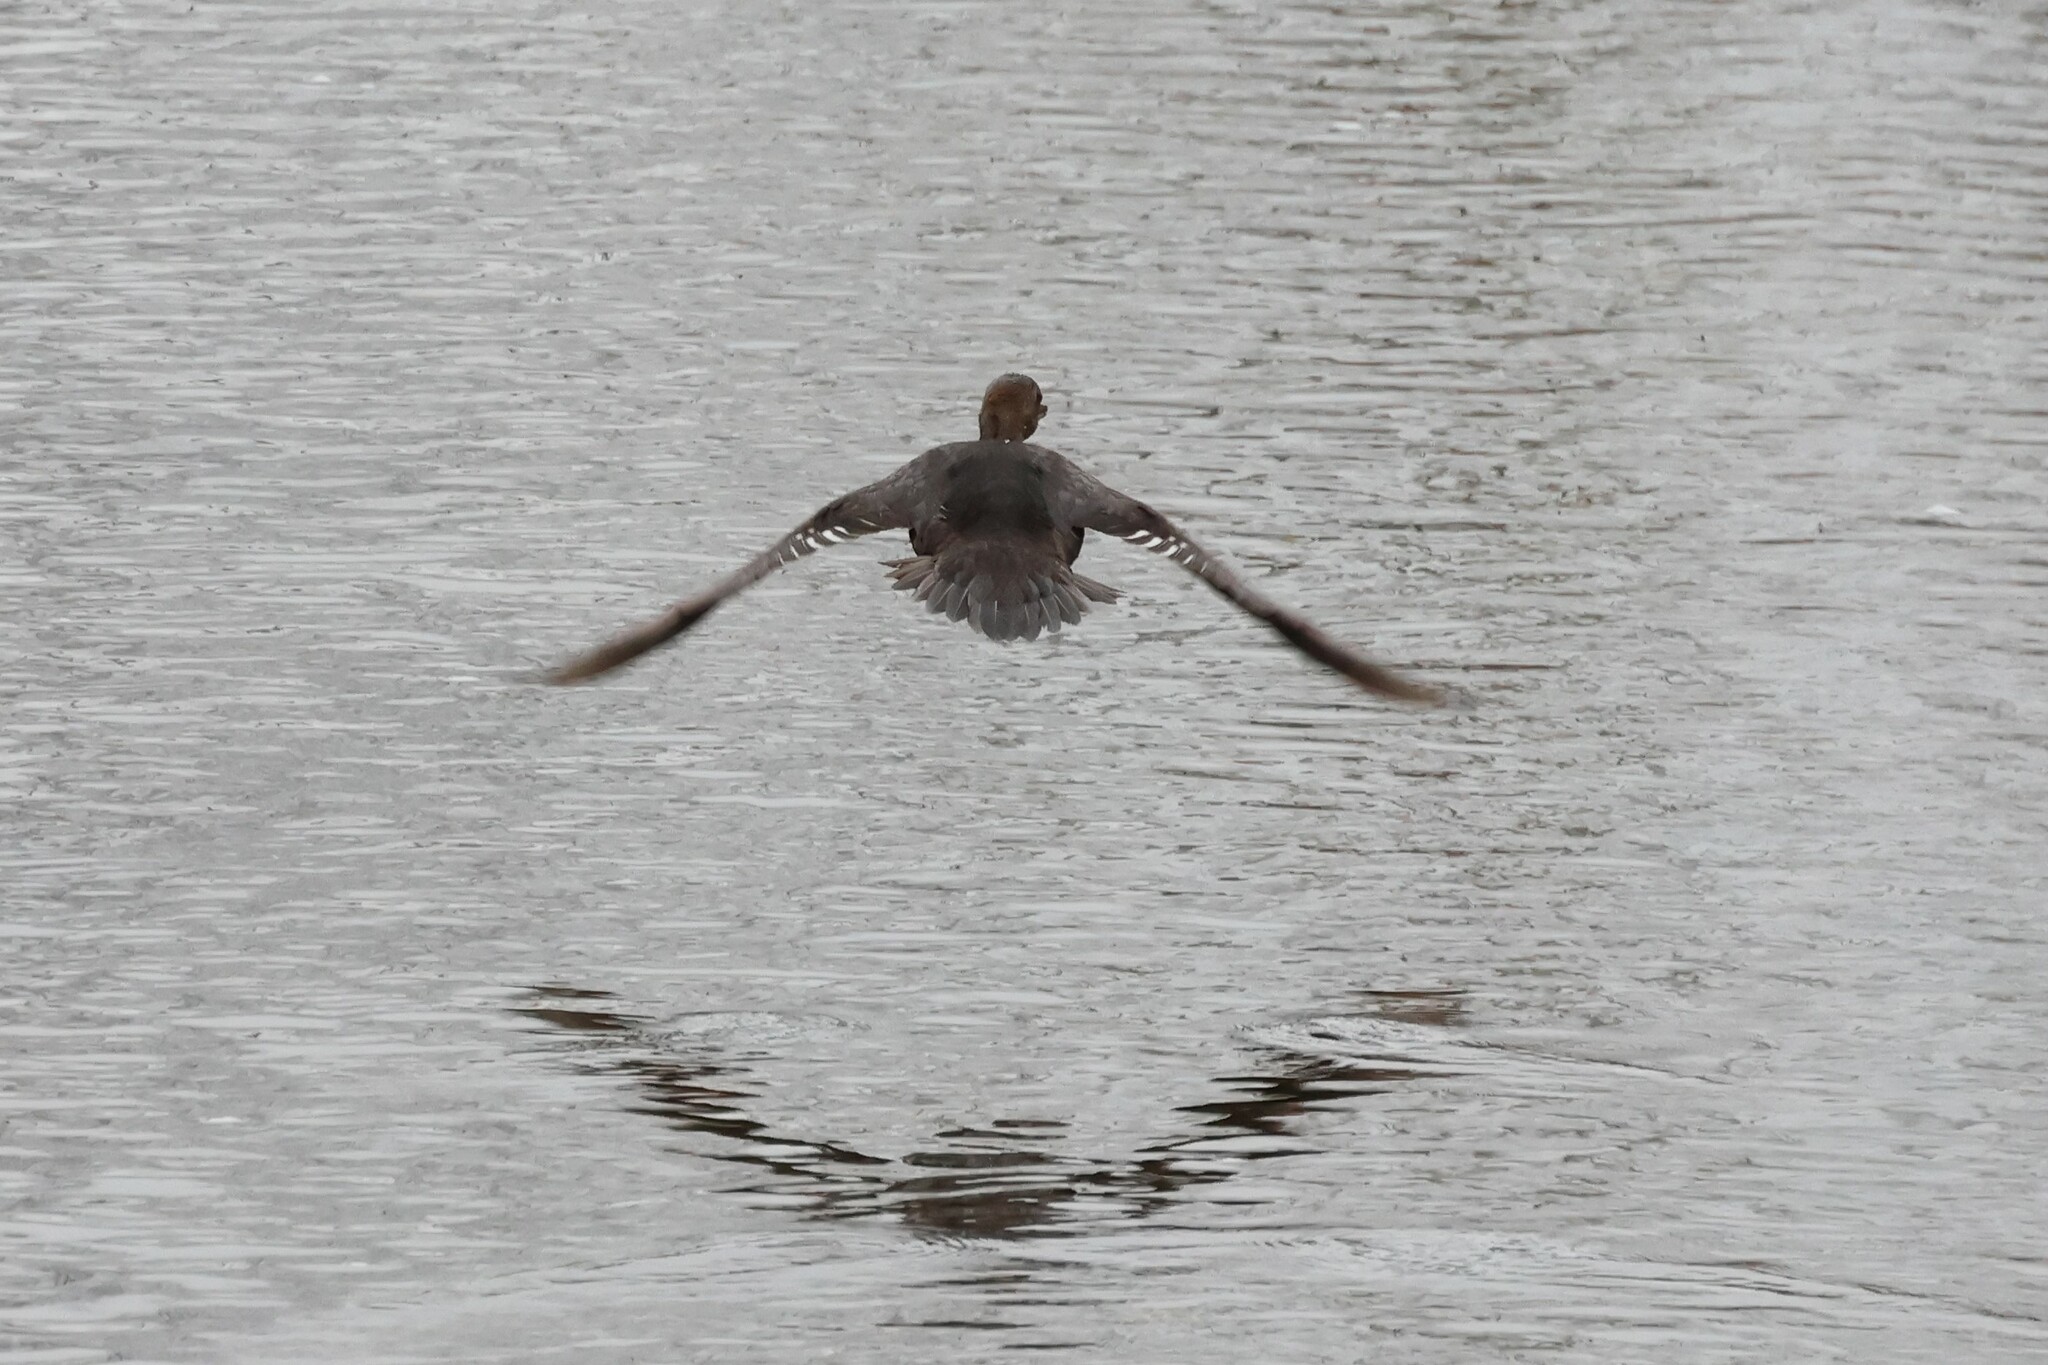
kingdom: Animalia
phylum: Chordata
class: Aves
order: Anseriformes
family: Anatidae
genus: Lophodytes
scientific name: Lophodytes cucullatus
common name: Hooded merganser
